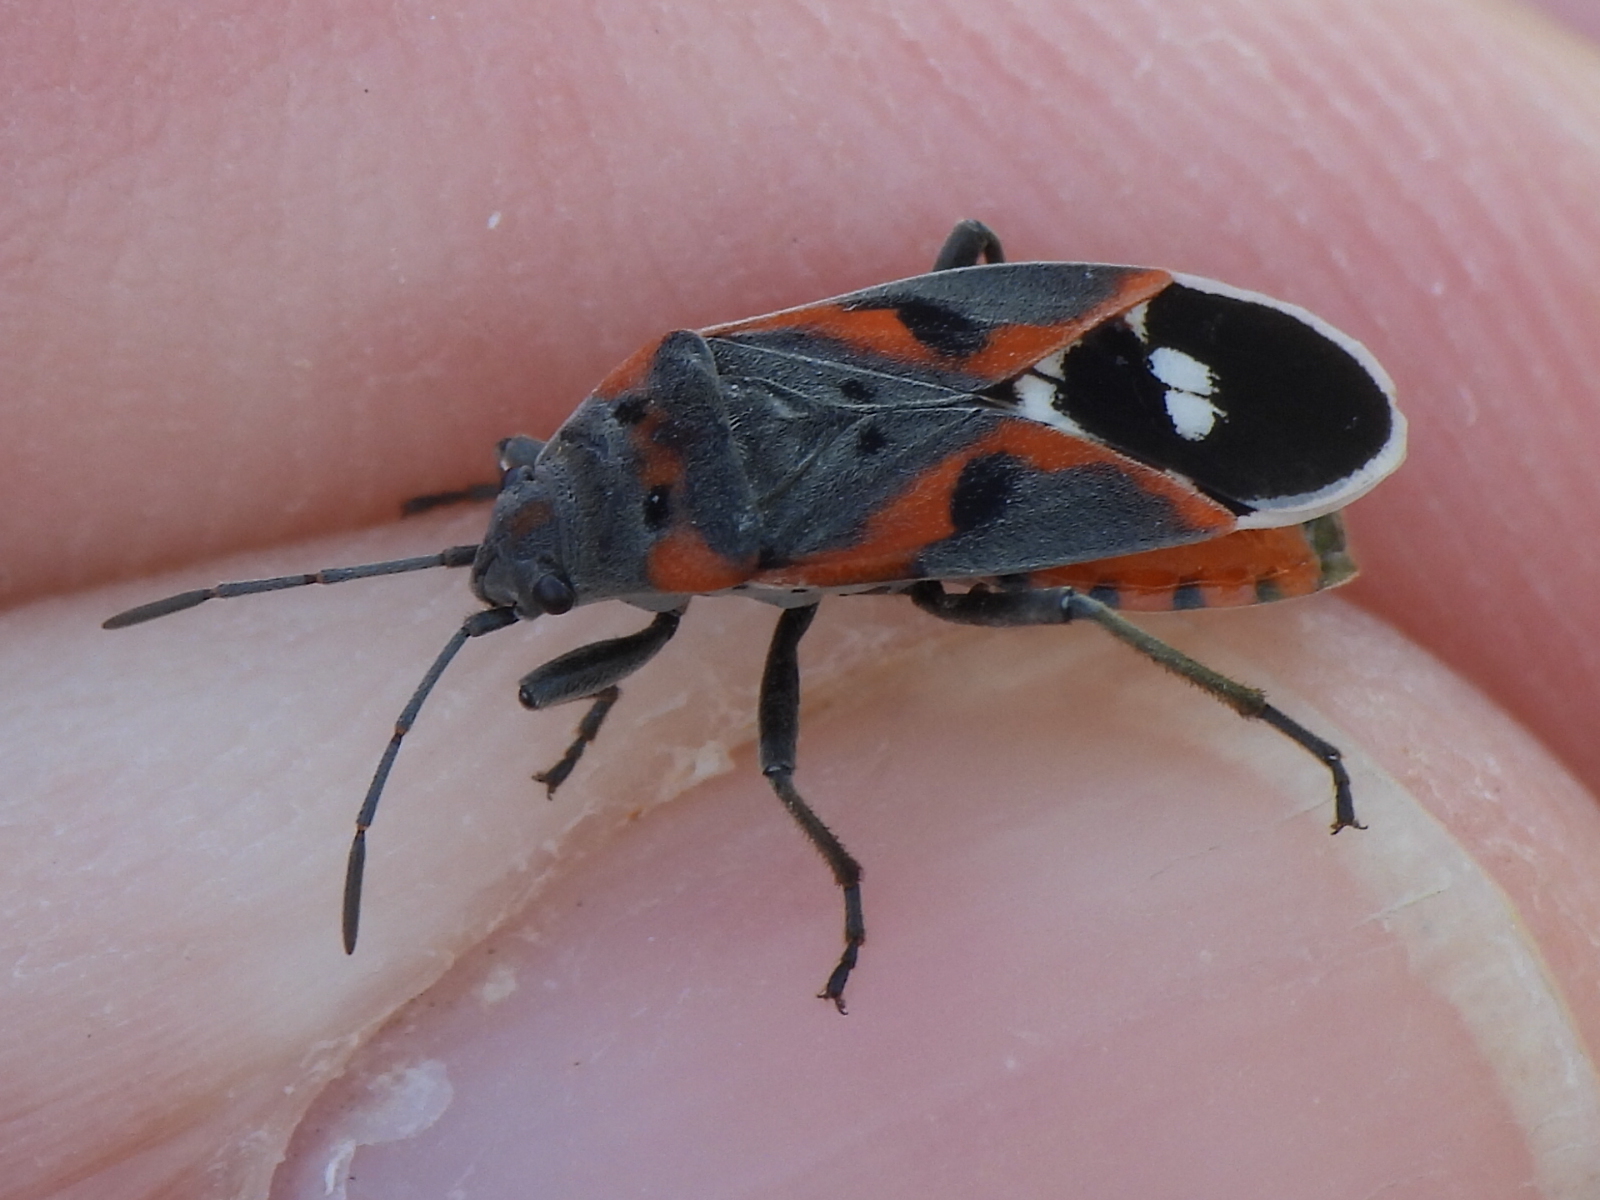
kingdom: Animalia
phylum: Arthropoda
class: Insecta
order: Hemiptera
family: Lygaeidae
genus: Lygaeus
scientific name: Lygaeus kalmii
